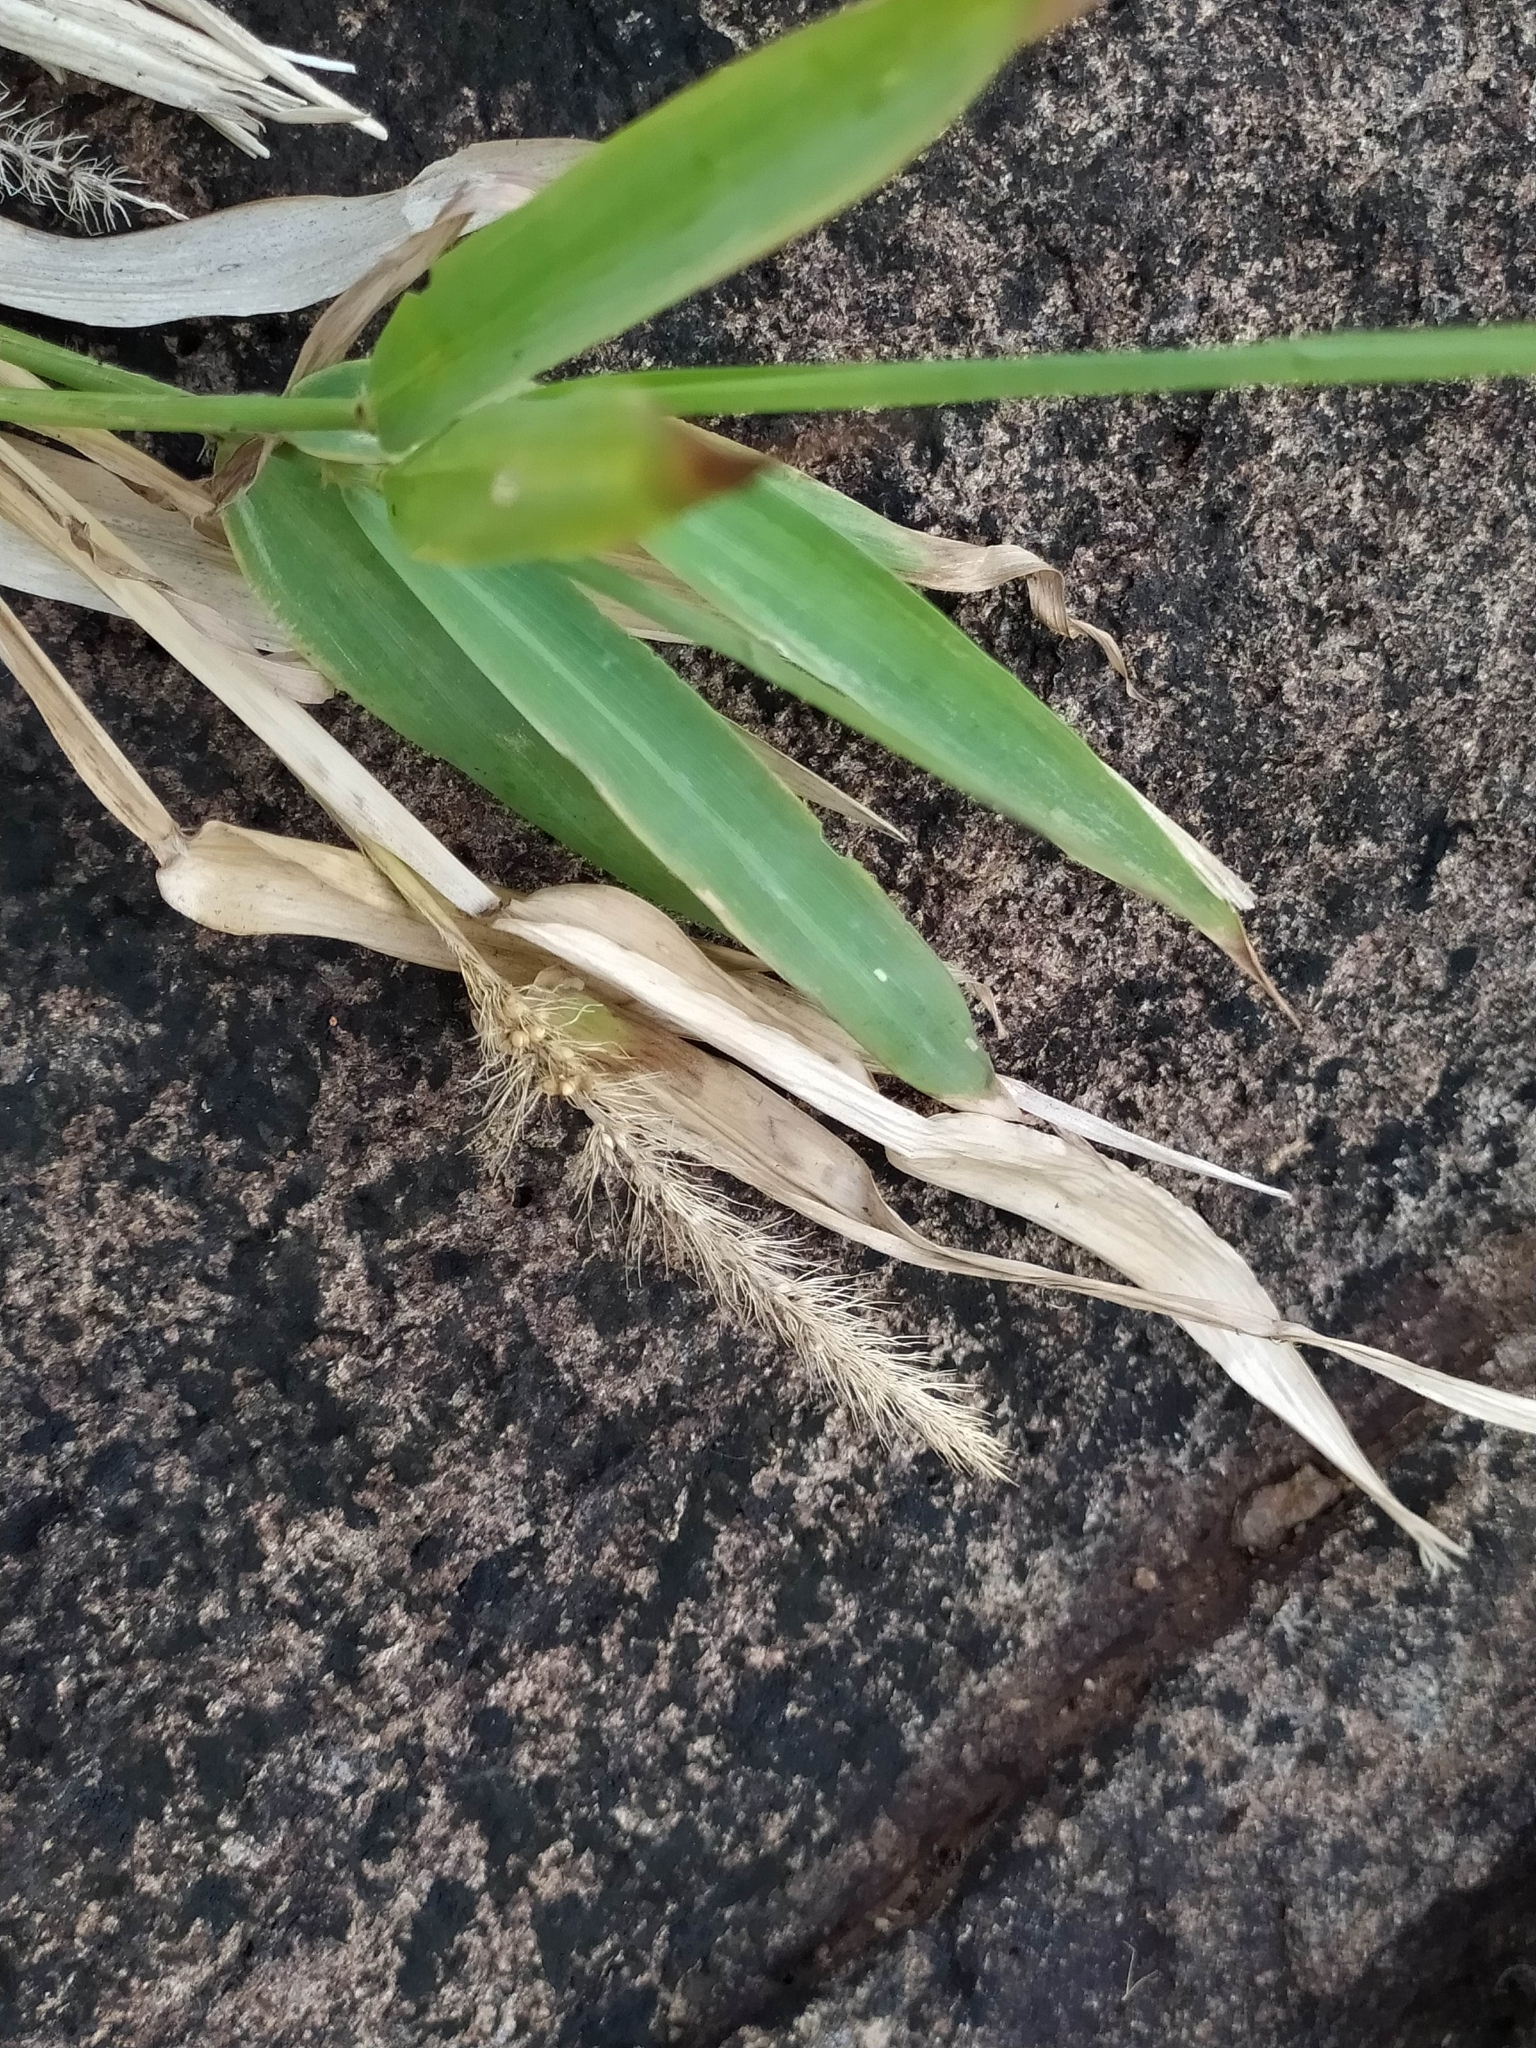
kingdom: Plantae
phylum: Tracheophyta
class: Liliopsida
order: Poales
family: Poaceae
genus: Setaria
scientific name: Setaria tenax
